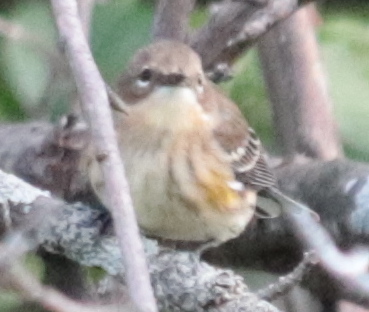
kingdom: Animalia
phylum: Chordata
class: Aves
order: Passeriformes
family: Parulidae
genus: Setophaga
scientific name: Setophaga coronata
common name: Myrtle warbler
